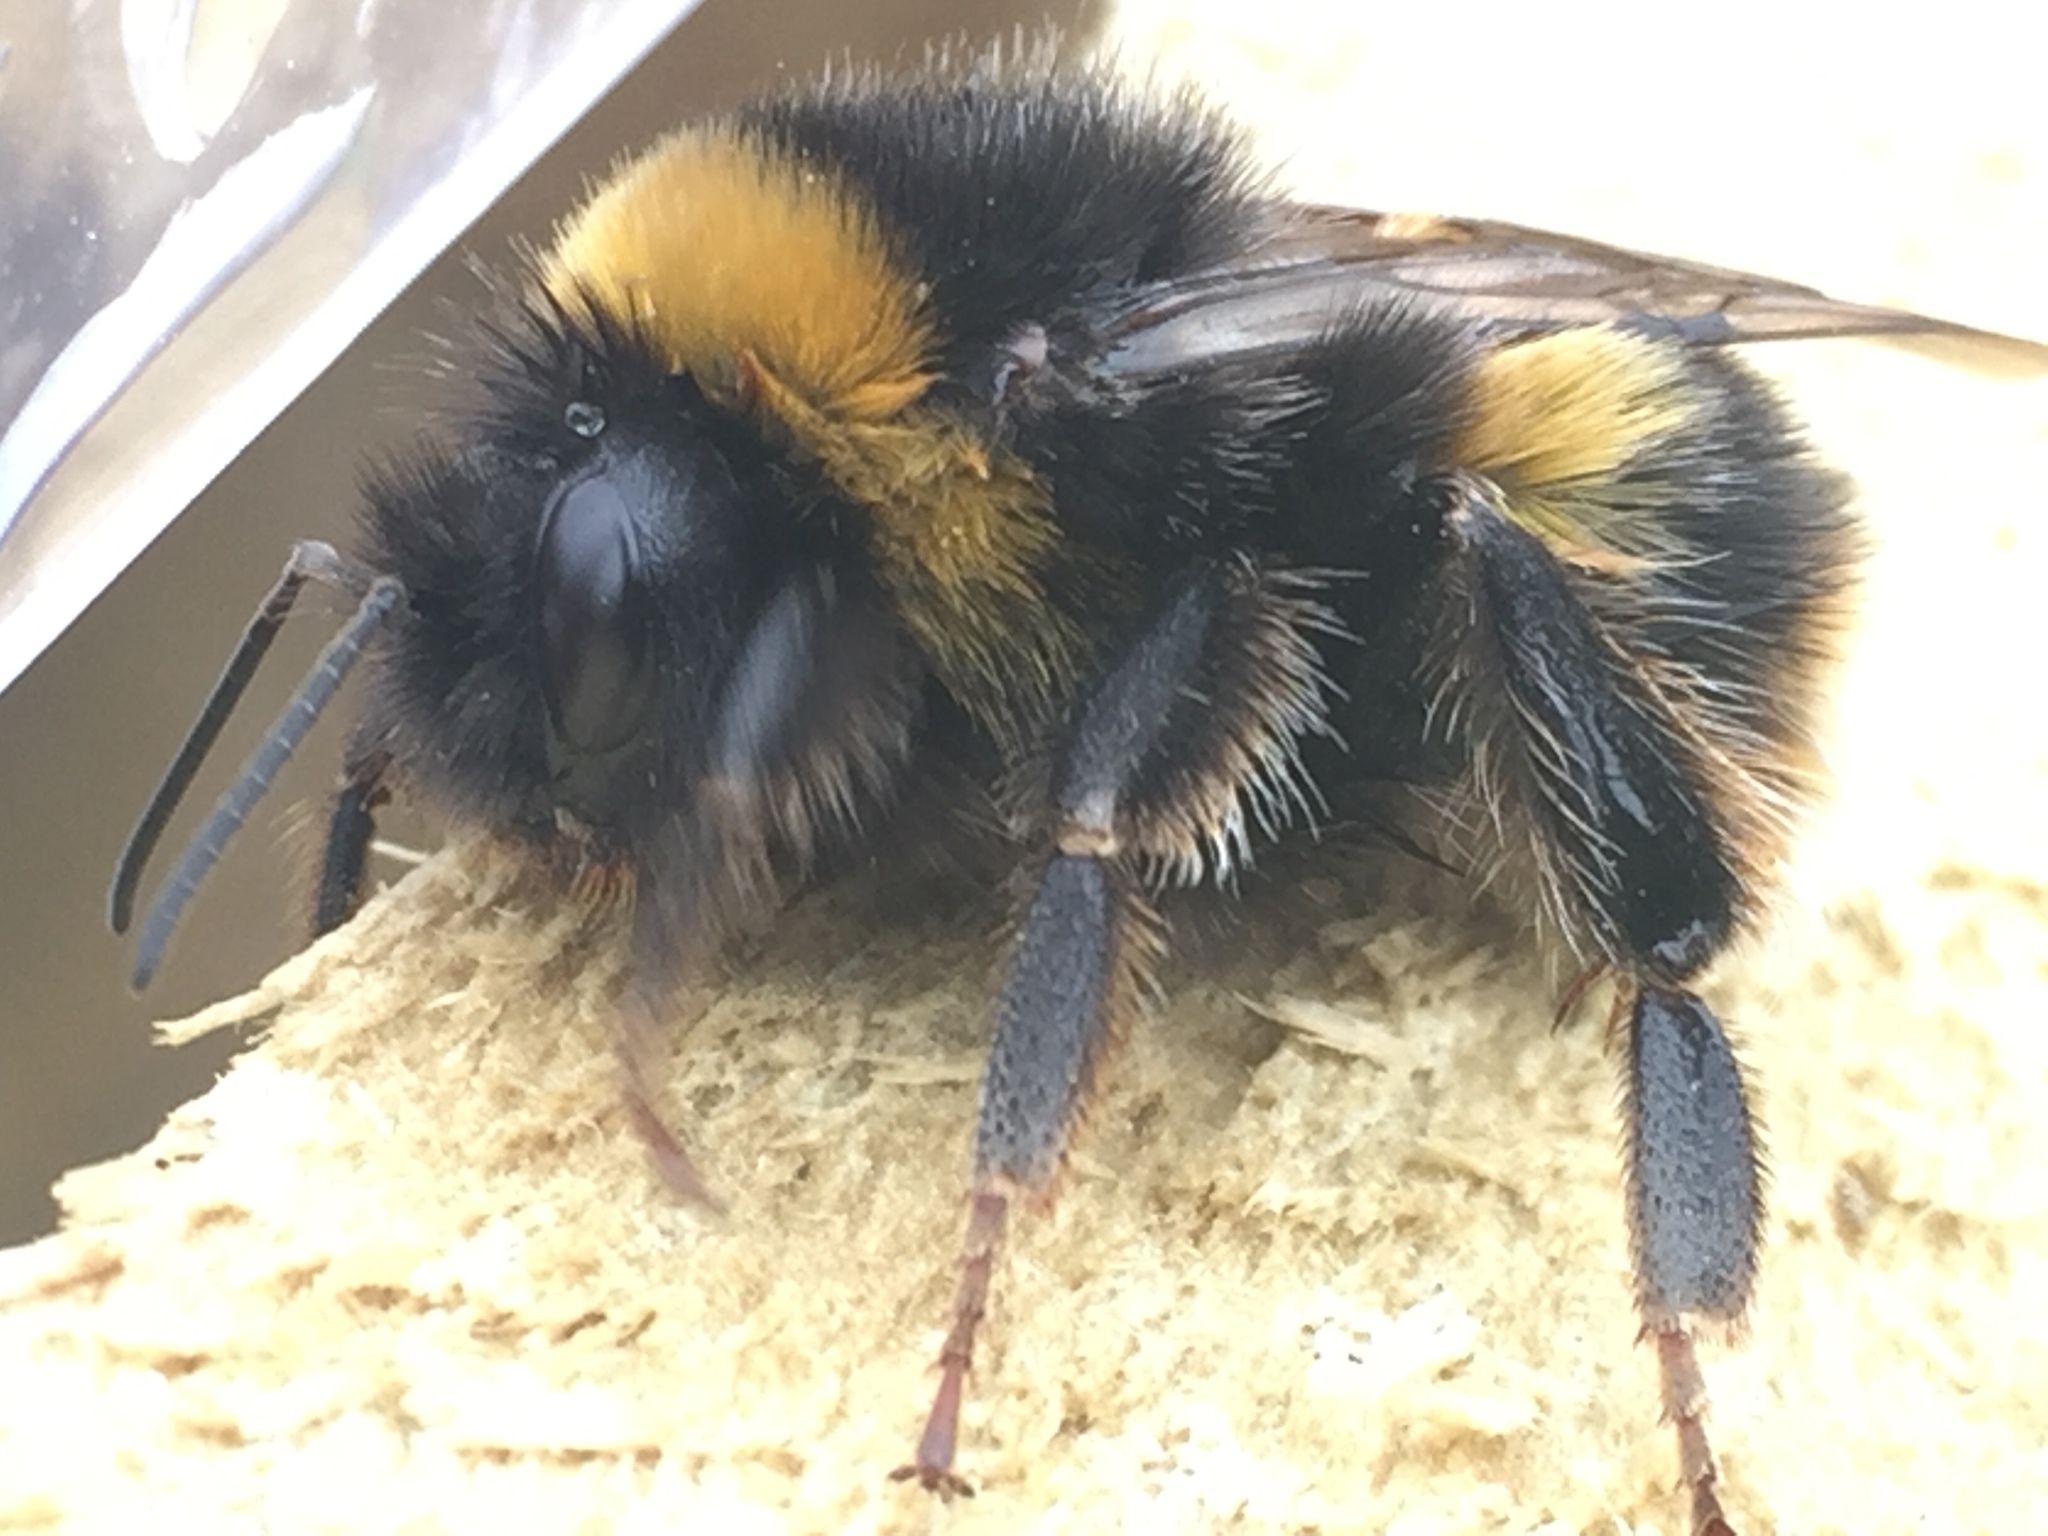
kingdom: Animalia
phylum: Arthropoda
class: Insecta
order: Hymenoptera
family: Apidae
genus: Bombus
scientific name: Bombus terrestris
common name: Buff-tailed bumblebee
